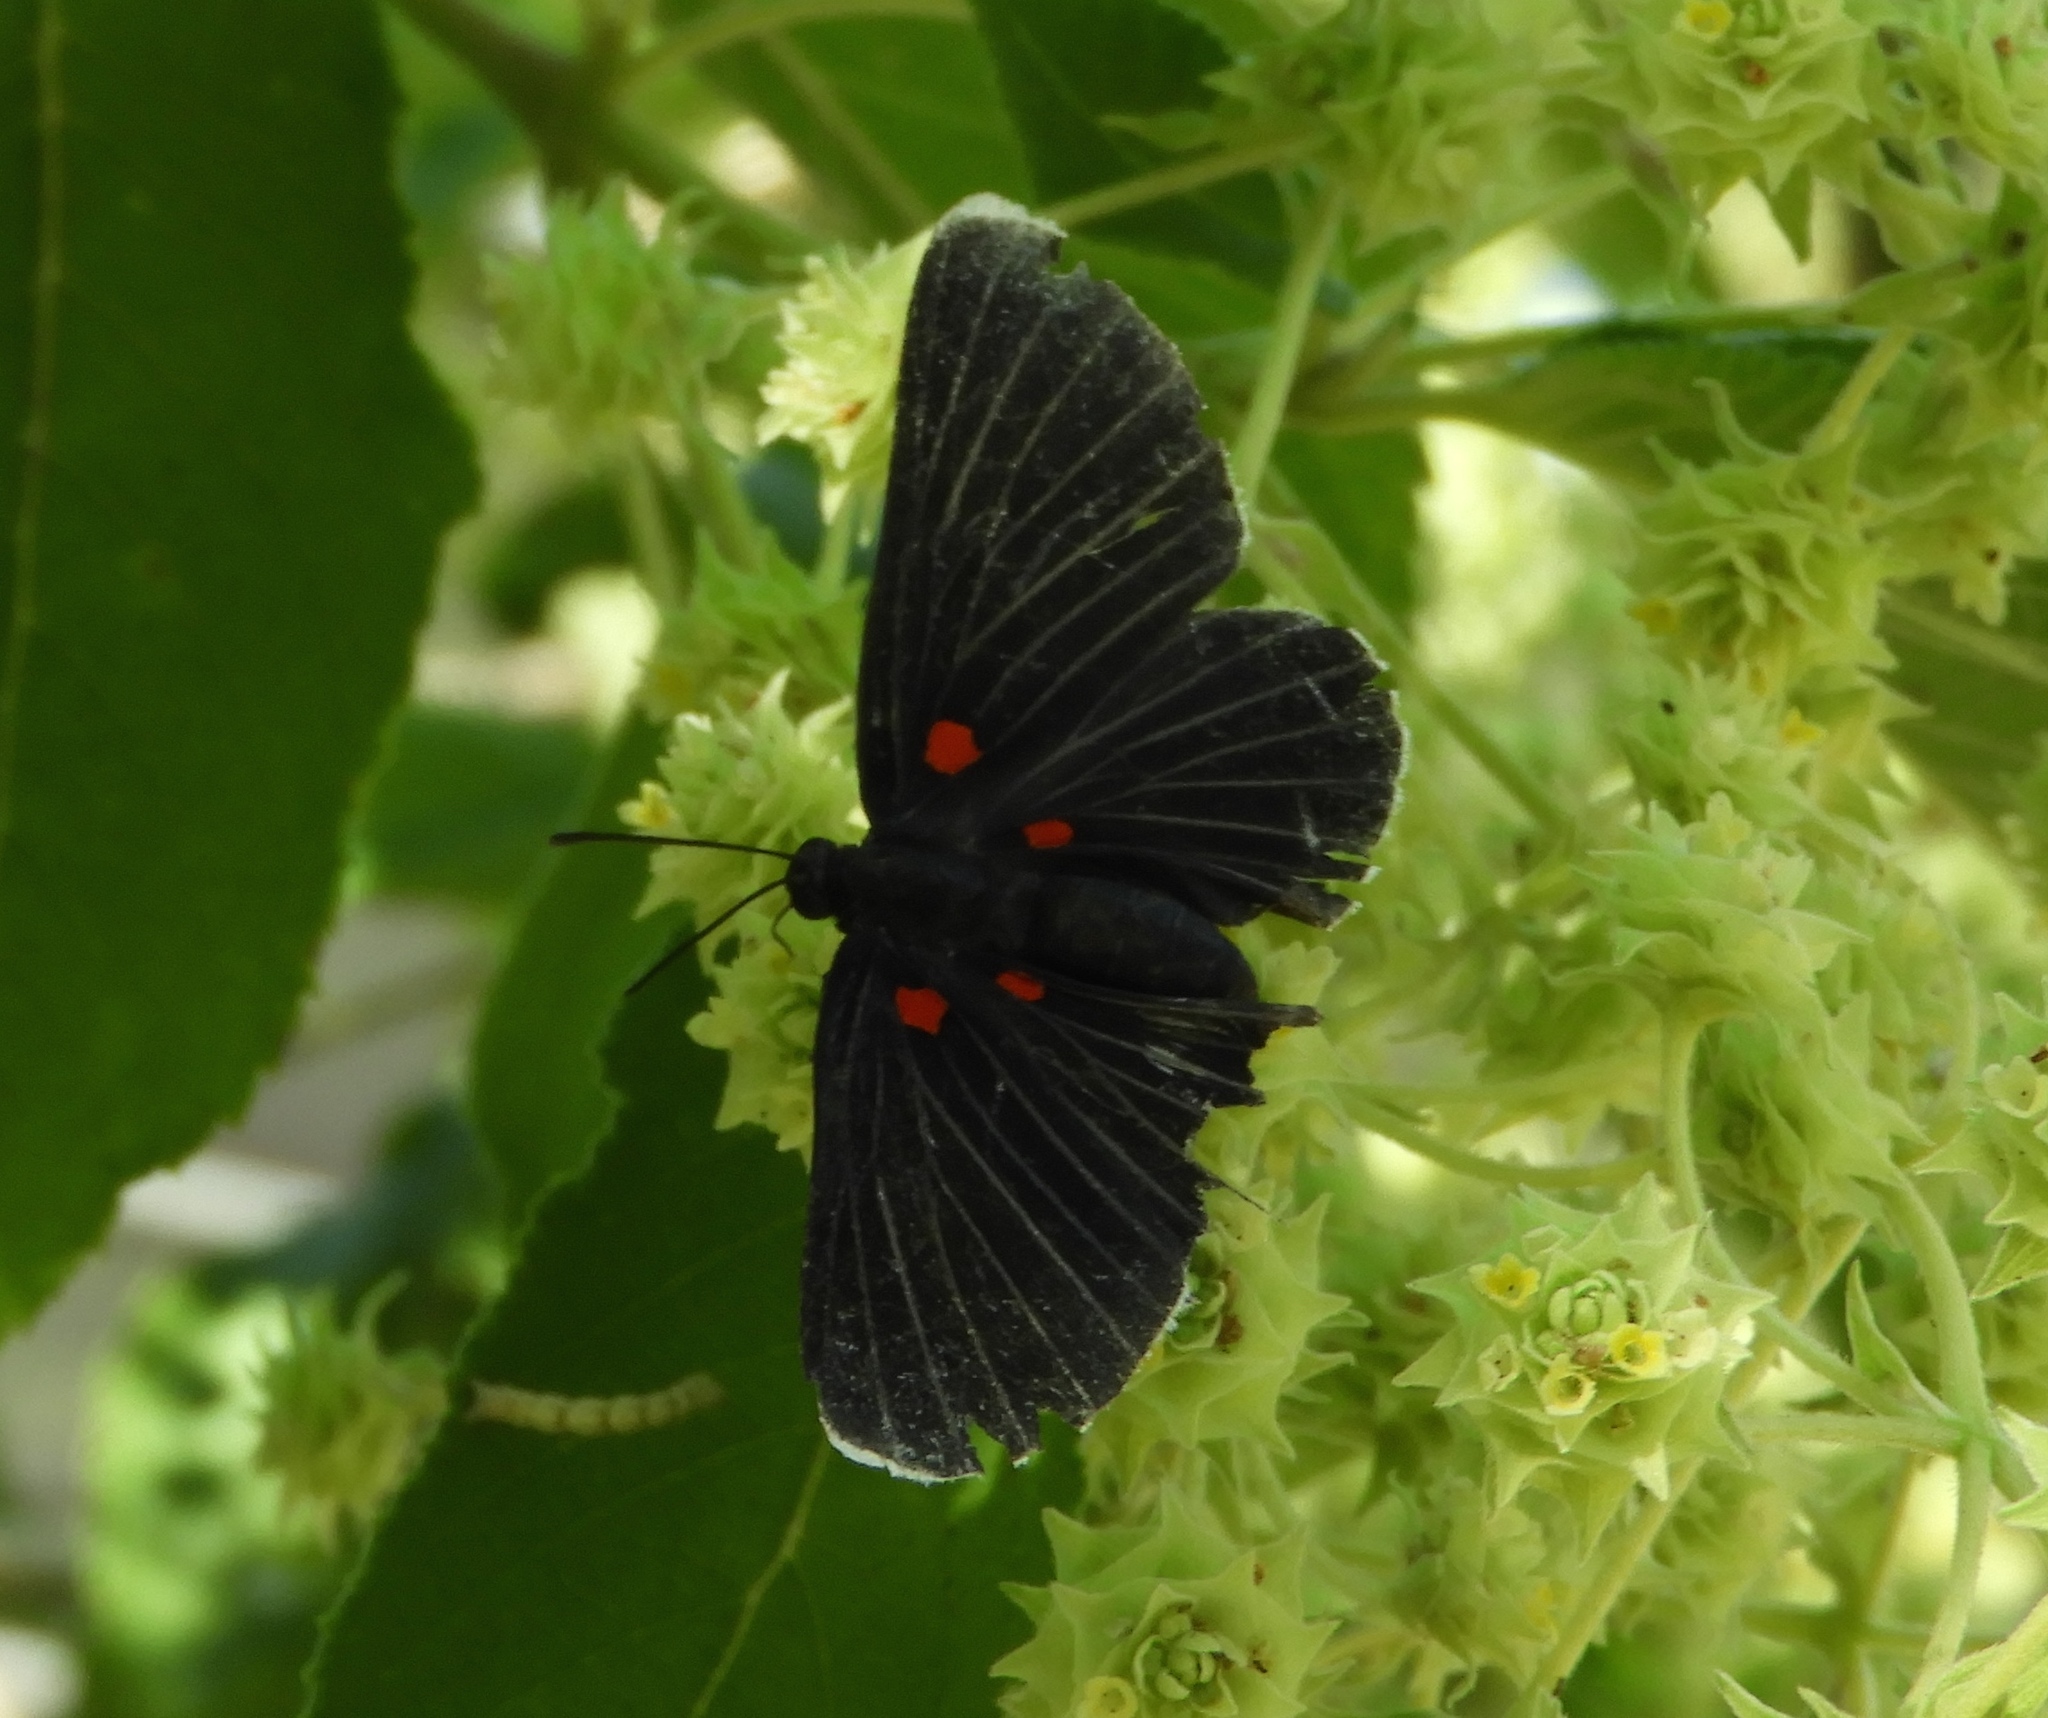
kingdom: Animalia
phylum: Arthropoda
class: Insecta
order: Lepidoptera
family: Lycaenidae
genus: Melanis
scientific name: Melanis
